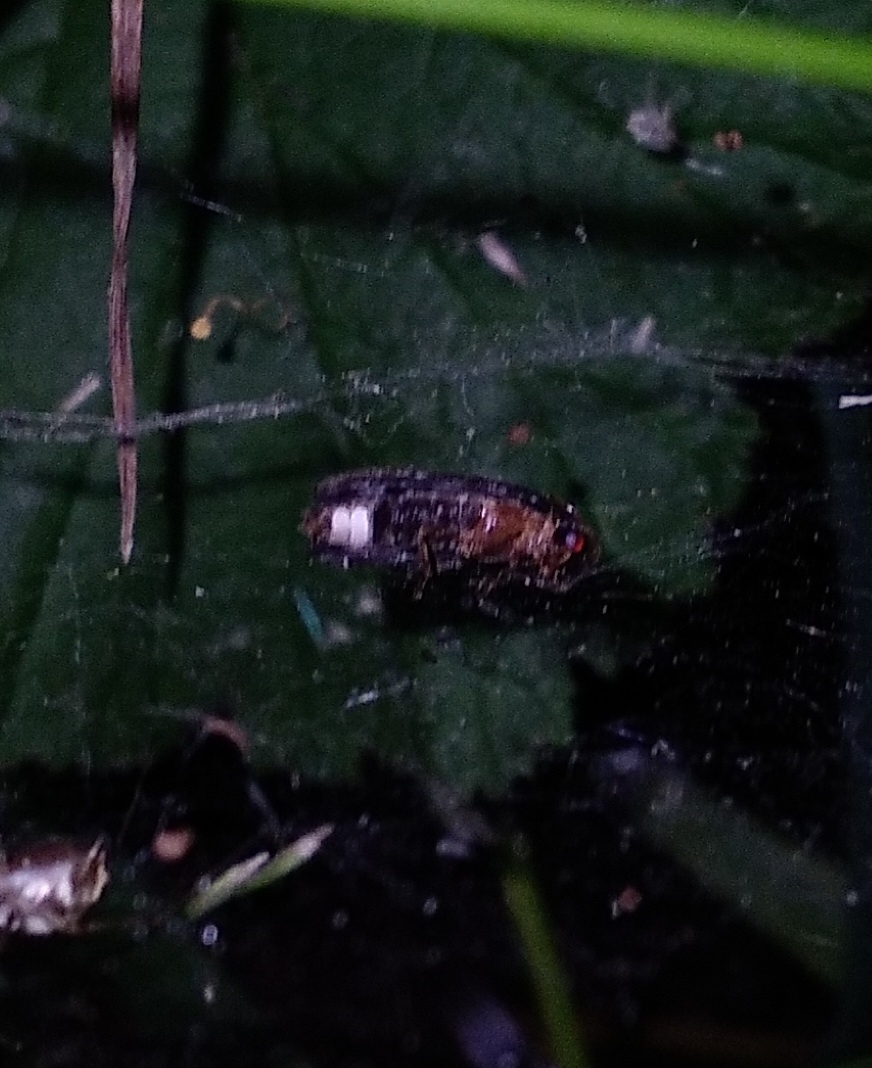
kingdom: Animalia
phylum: Arthropoda
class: Insecta
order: Coleoptera
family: Lampyridae
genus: Lamprohiza
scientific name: Lamprohiza splendidula
